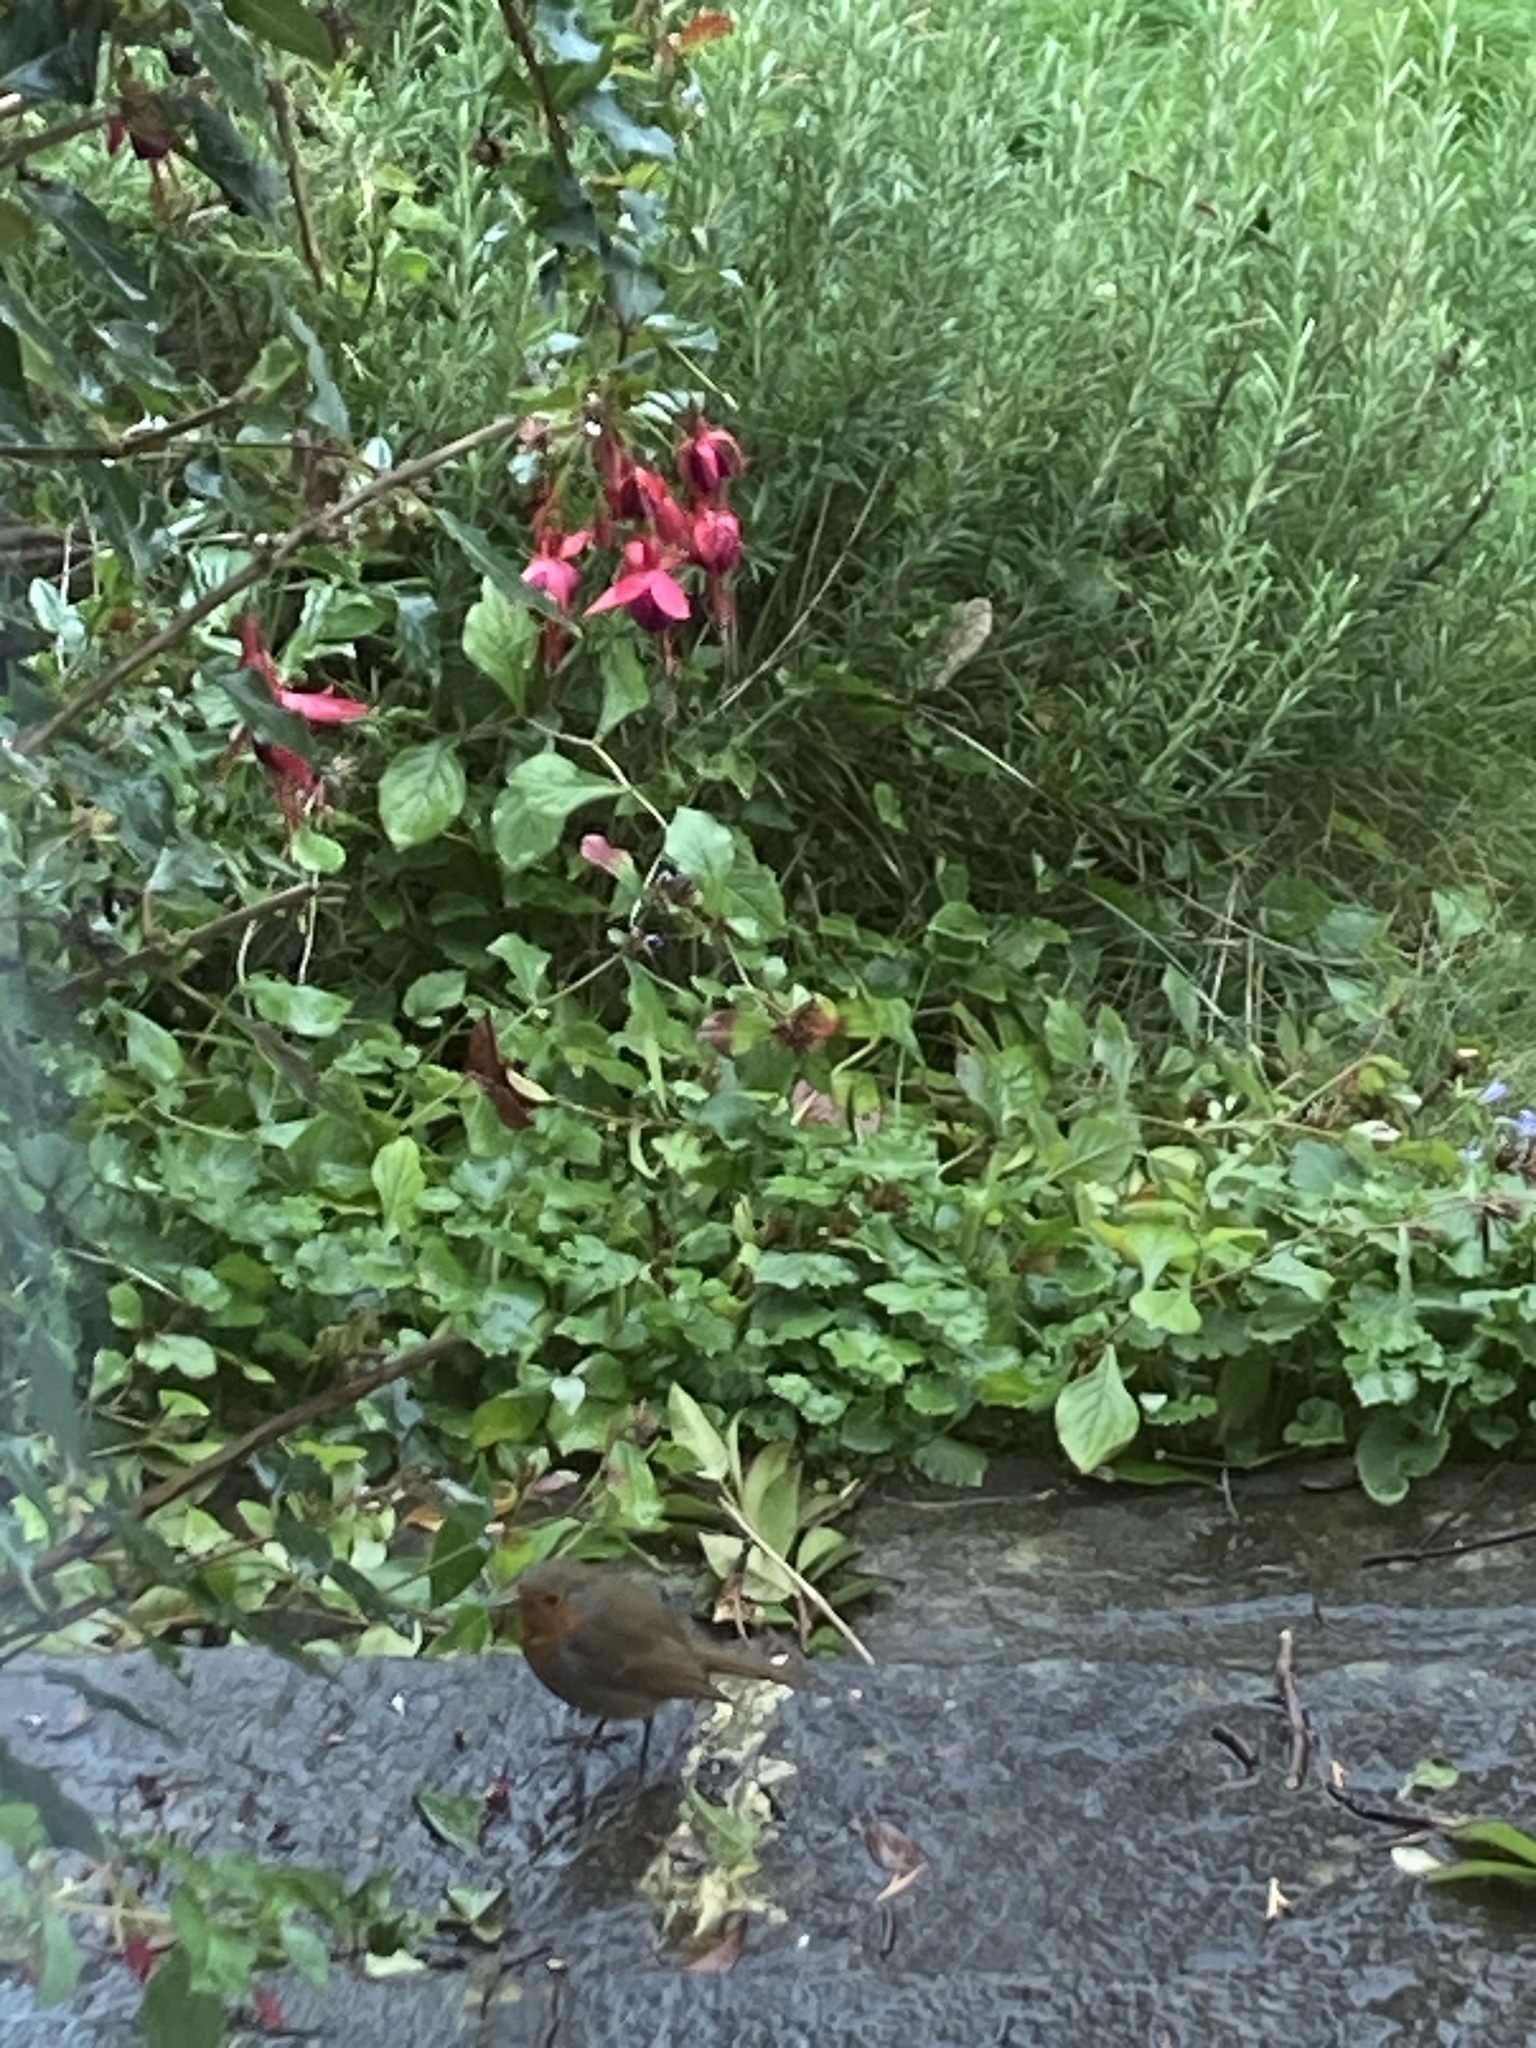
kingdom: Animalia
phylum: Chordata
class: Aves
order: Passeriformes
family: Muscicapidae
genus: Erithacus
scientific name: Erithacus rubecula
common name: European robin
